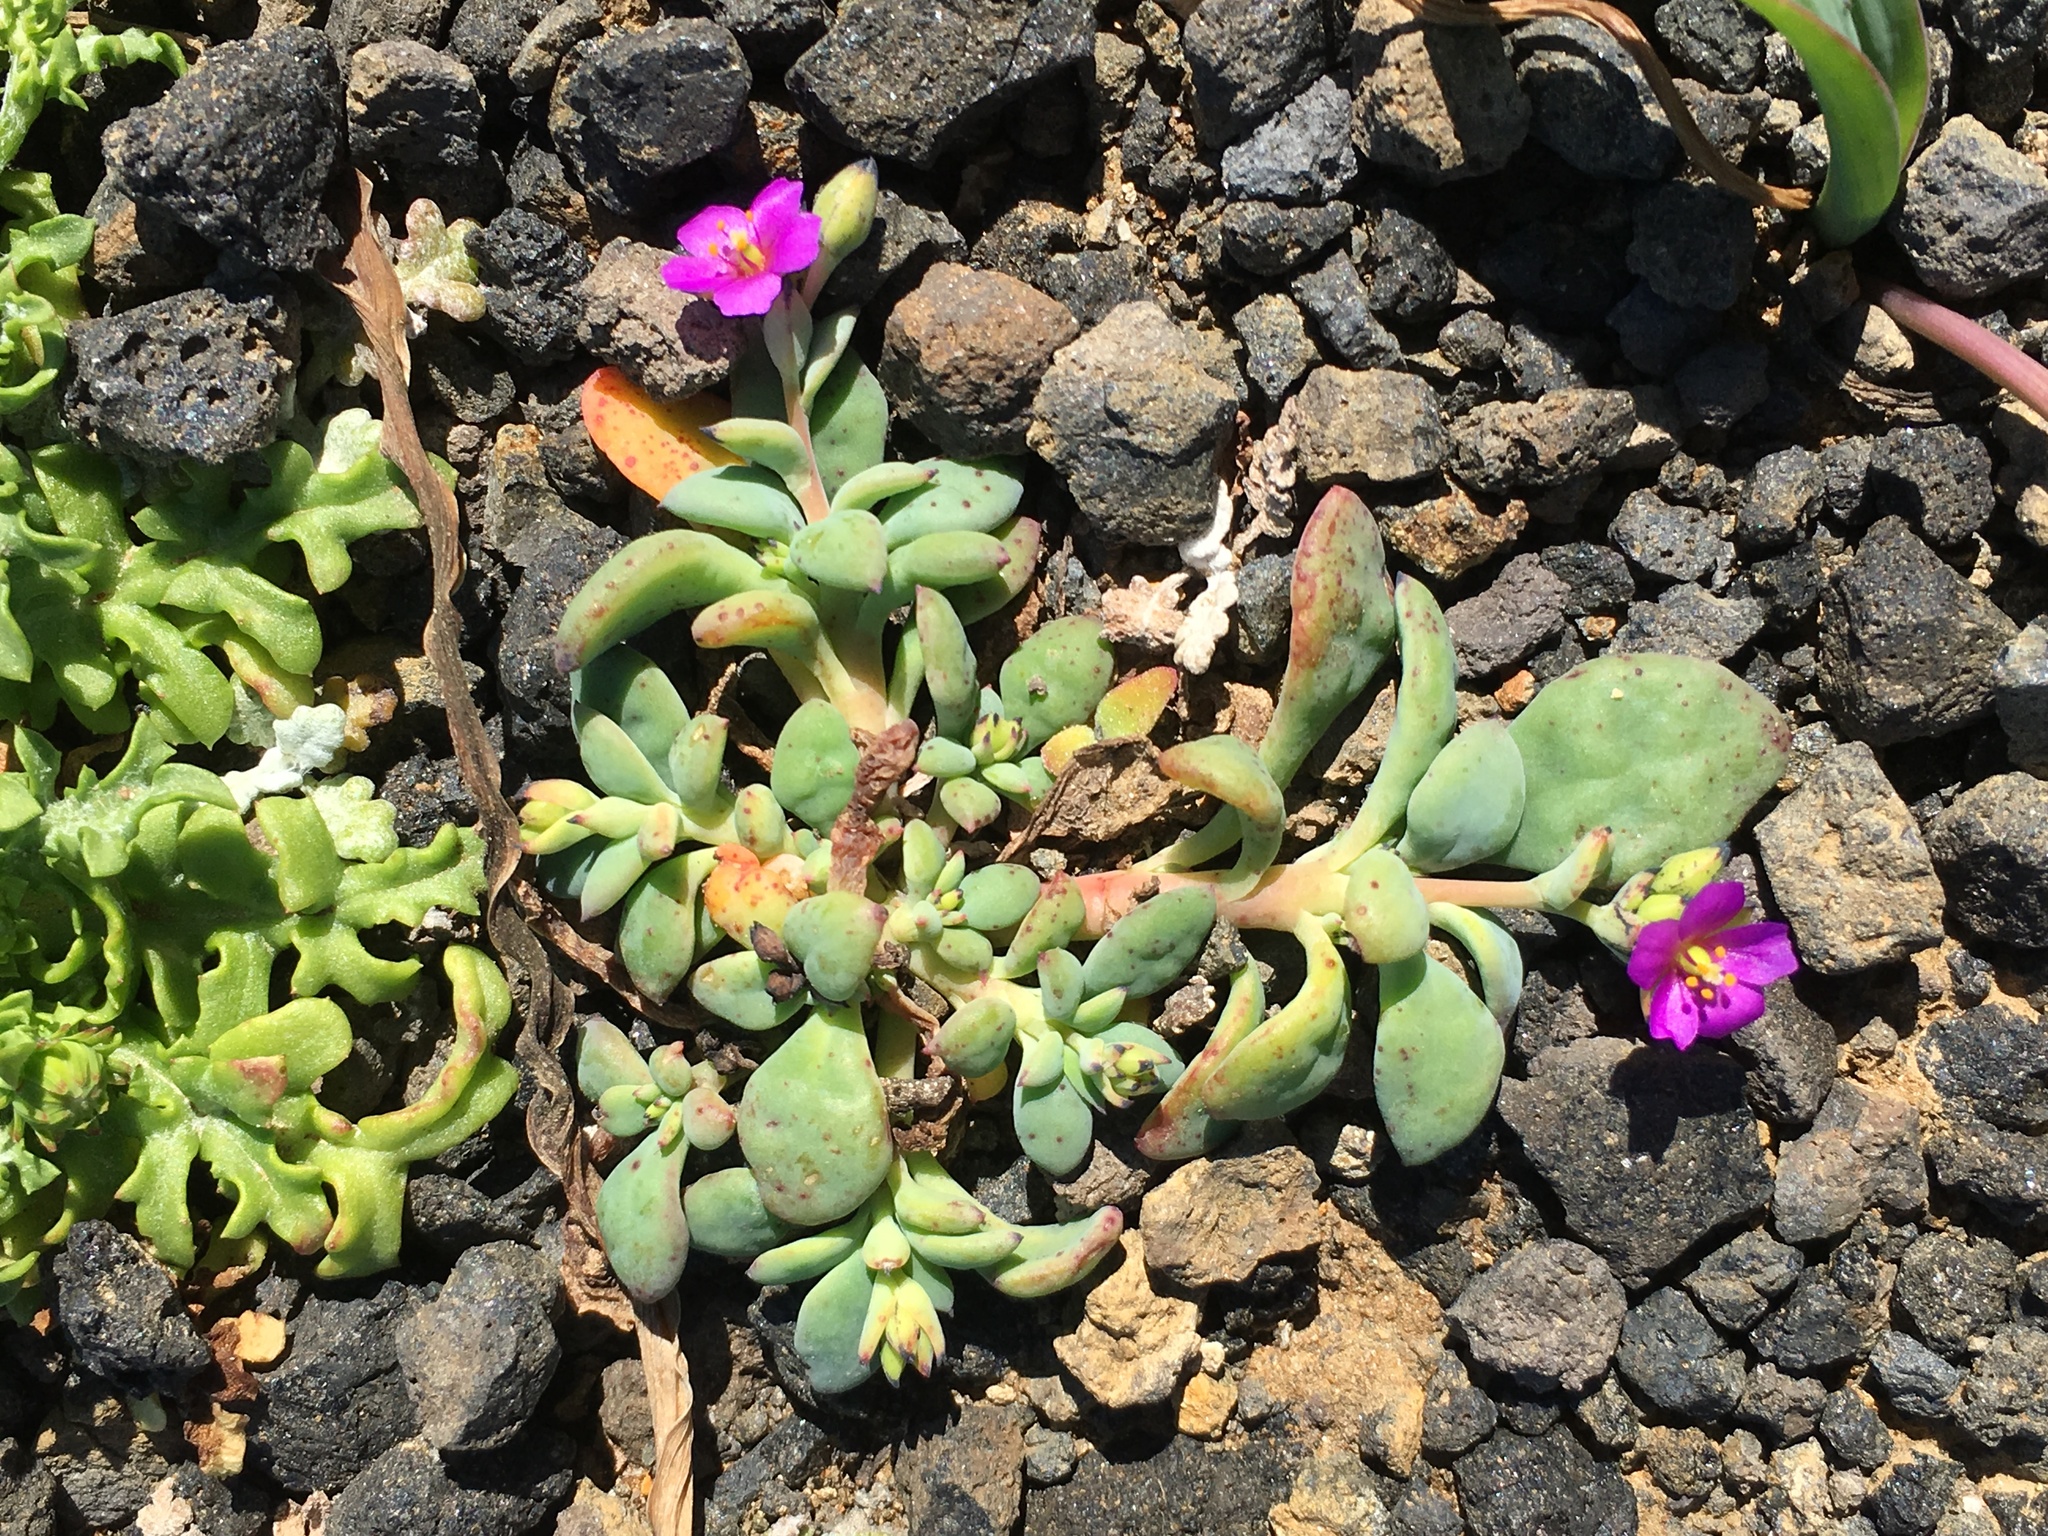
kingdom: Plantae
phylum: Tracheophyta
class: Magnoliopsida
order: Caryophyllales
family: Montiaceae
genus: Cistanthe
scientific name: Cistanthe maritima
